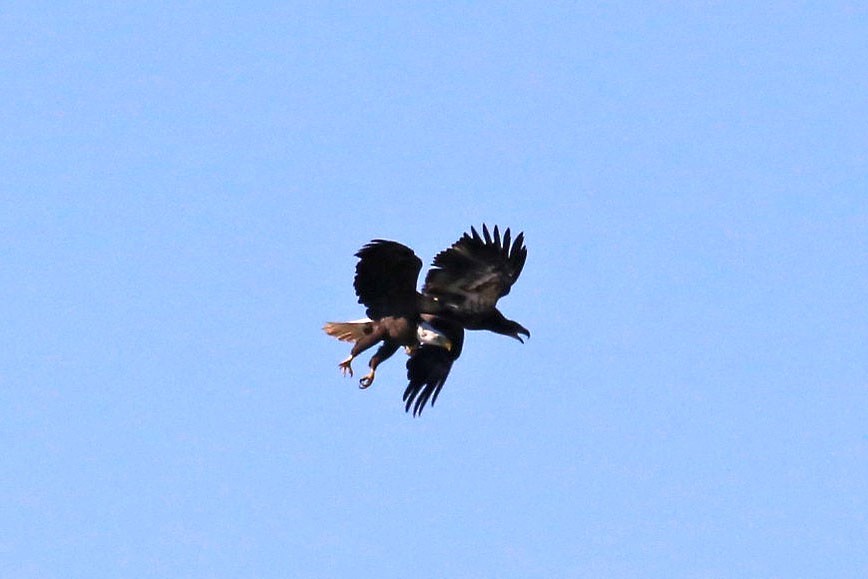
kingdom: Animalia
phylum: Chordata
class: Aves
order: Accipitriformes
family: Accipitridae
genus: Haliaeetus
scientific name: Haliaeetus leucocephalus
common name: Bald eagle
